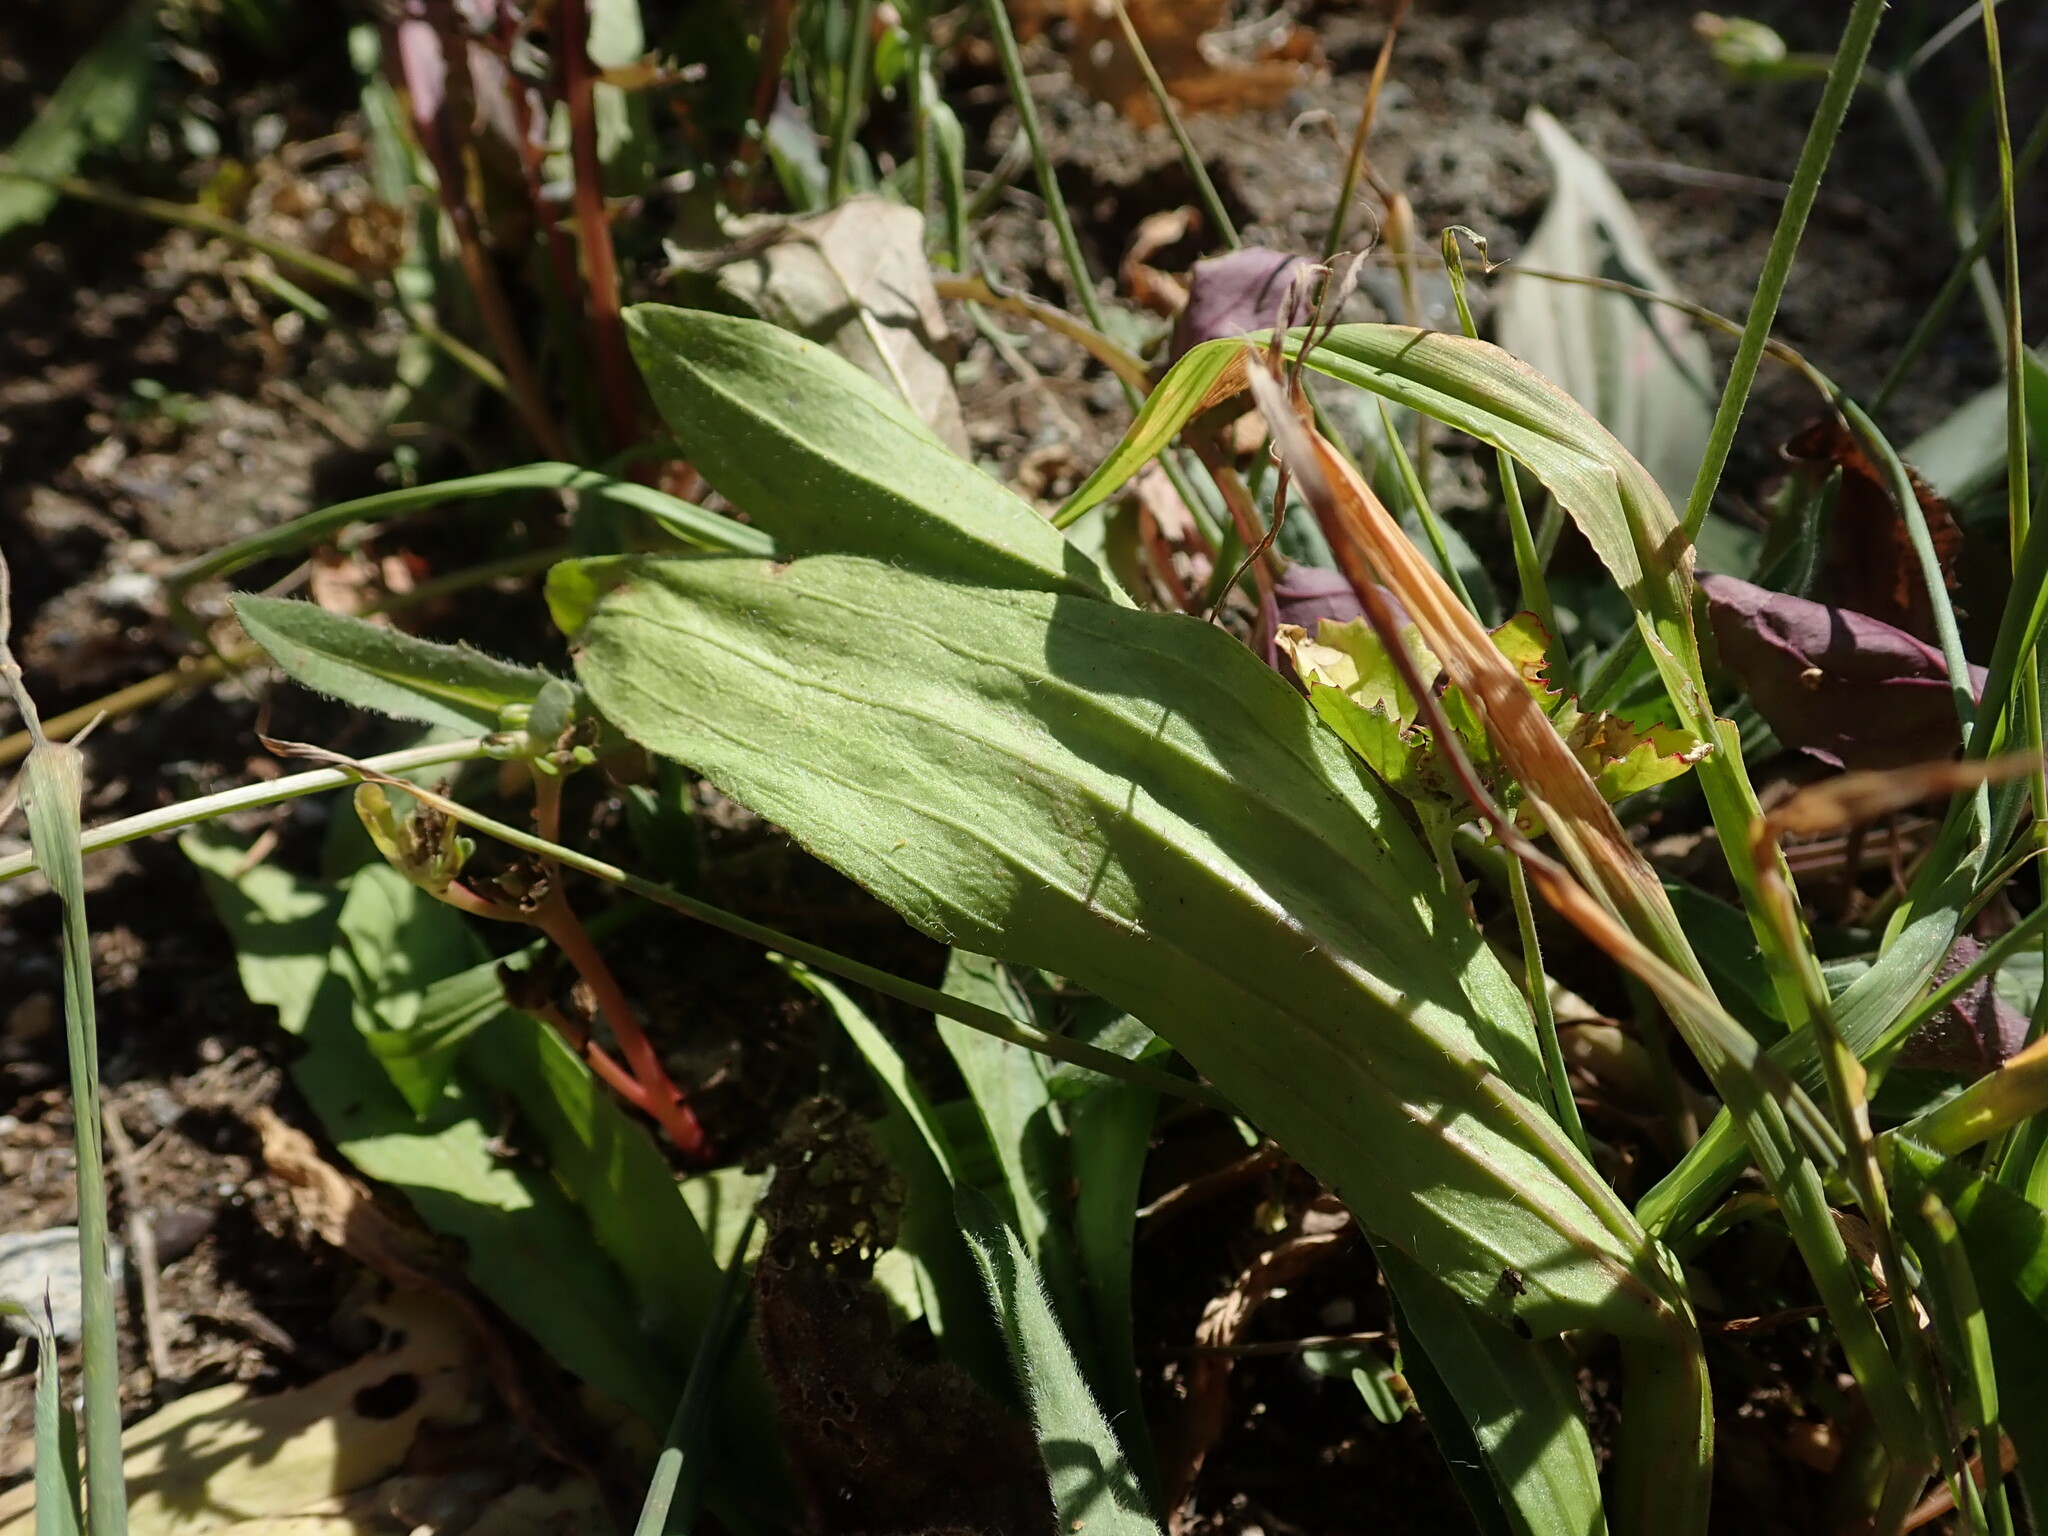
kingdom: Plantae
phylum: Tracheophyta
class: Magnoliopsida
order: Lamiales
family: Plantaginaceae
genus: Plantago
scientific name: Plantago lagopus
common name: Hare-foot plantain
